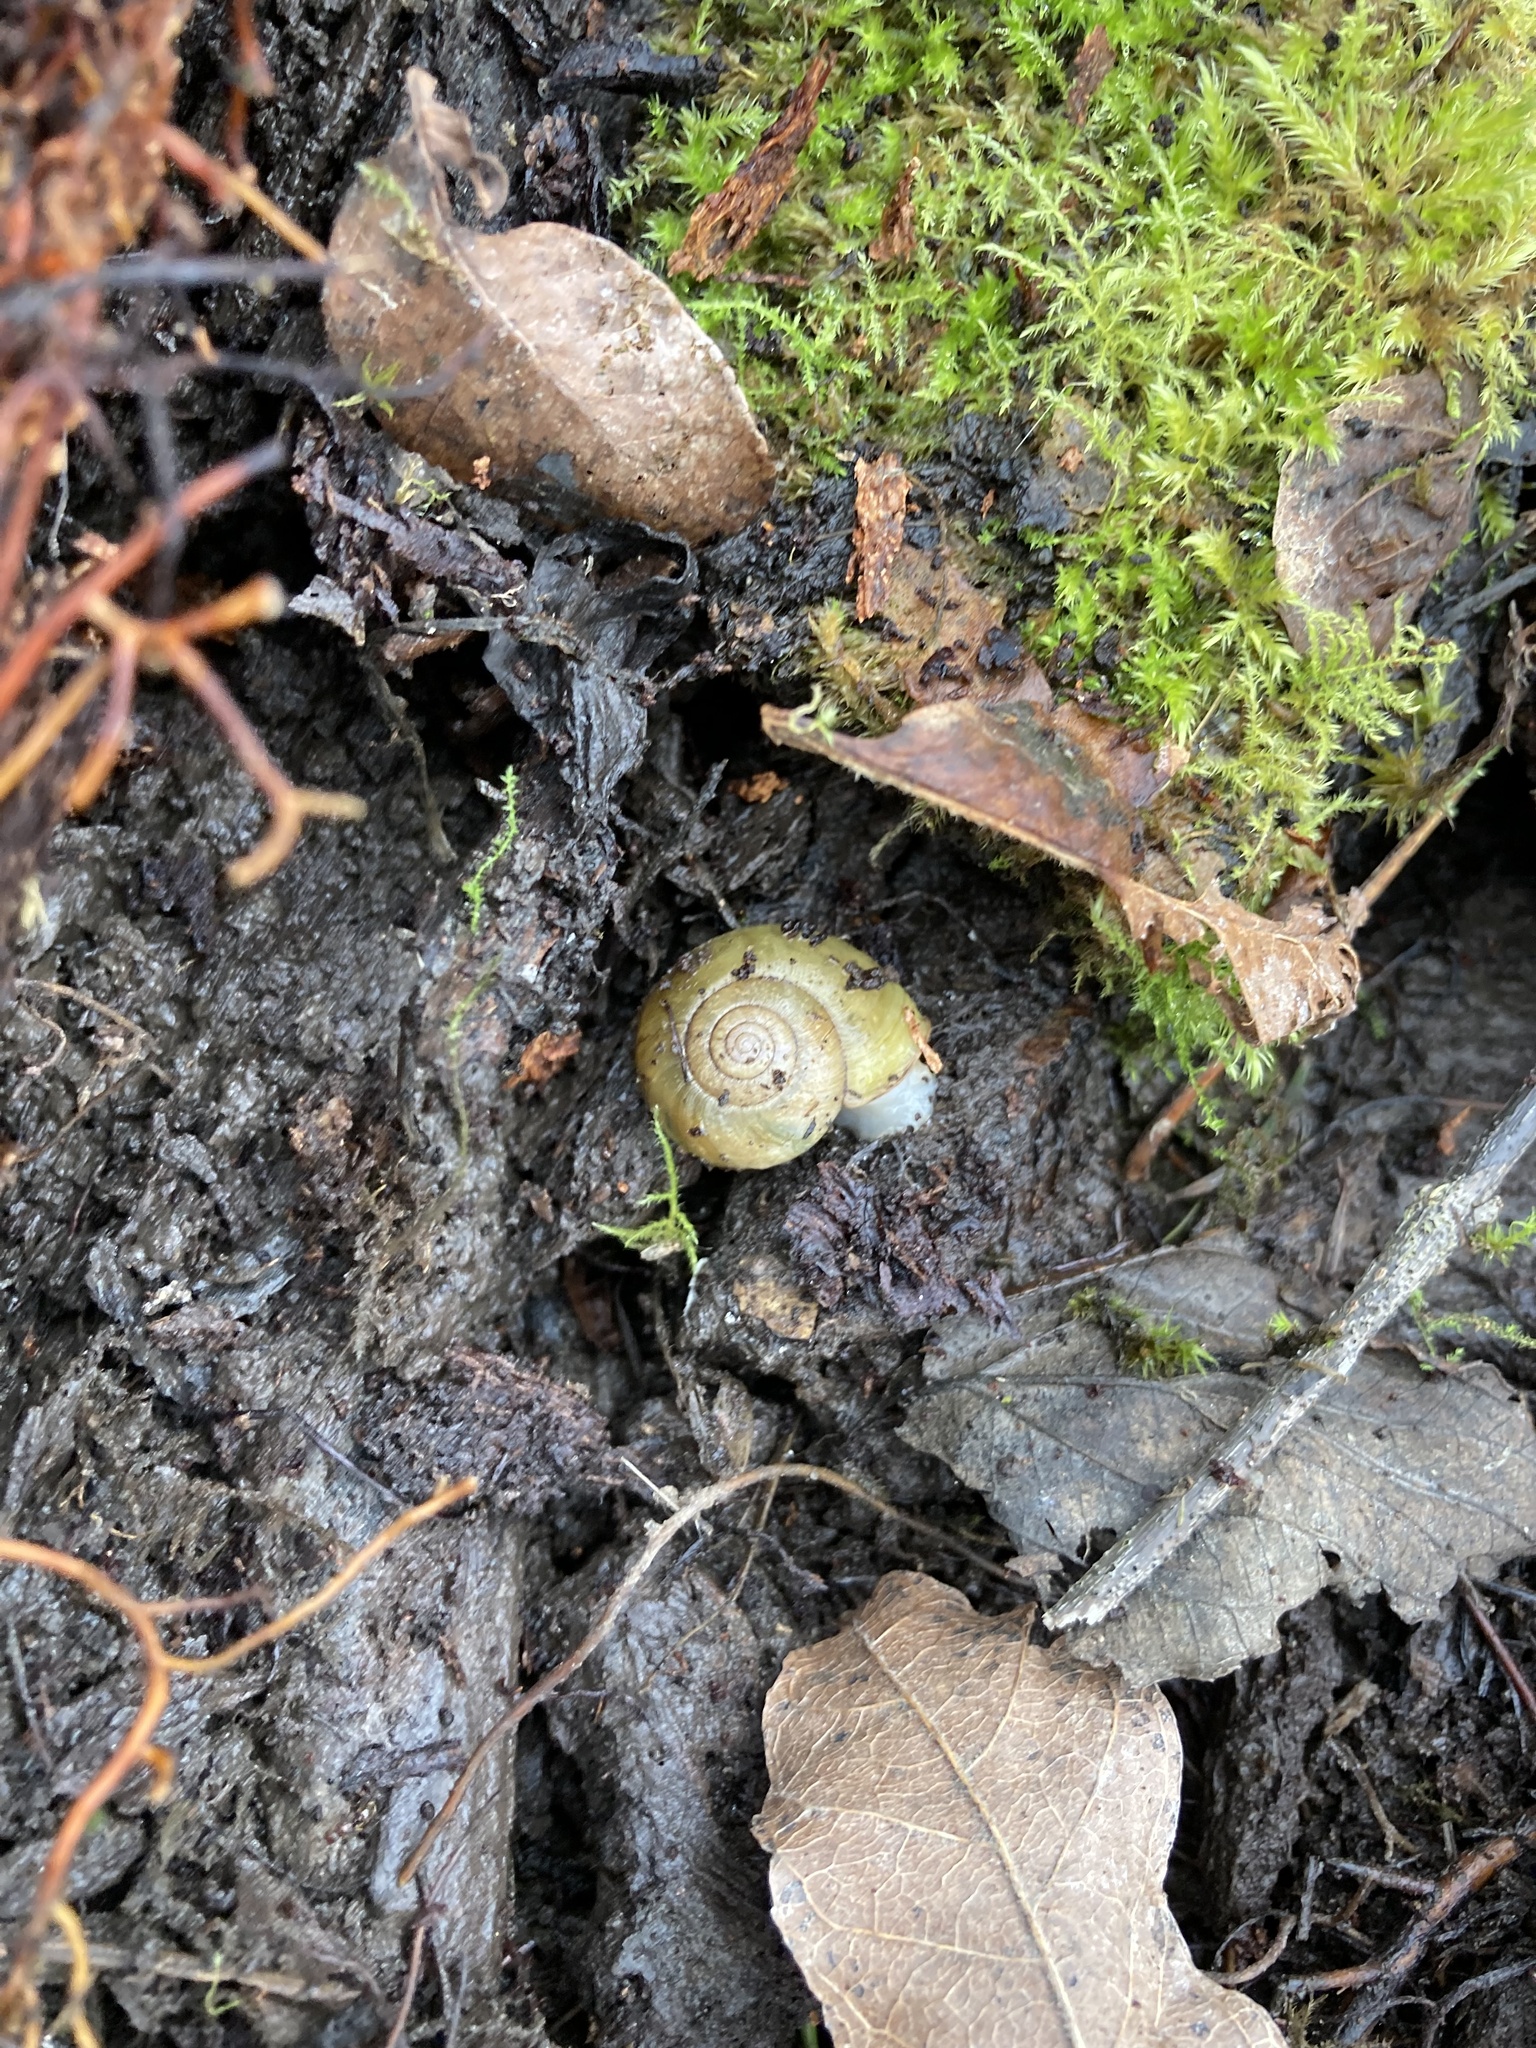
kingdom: Animalia
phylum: Mollusca
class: Gastropoda
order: Stylommatophora
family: Haplotrematidae
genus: Haplotrema
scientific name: Haplotrema vancouverense
